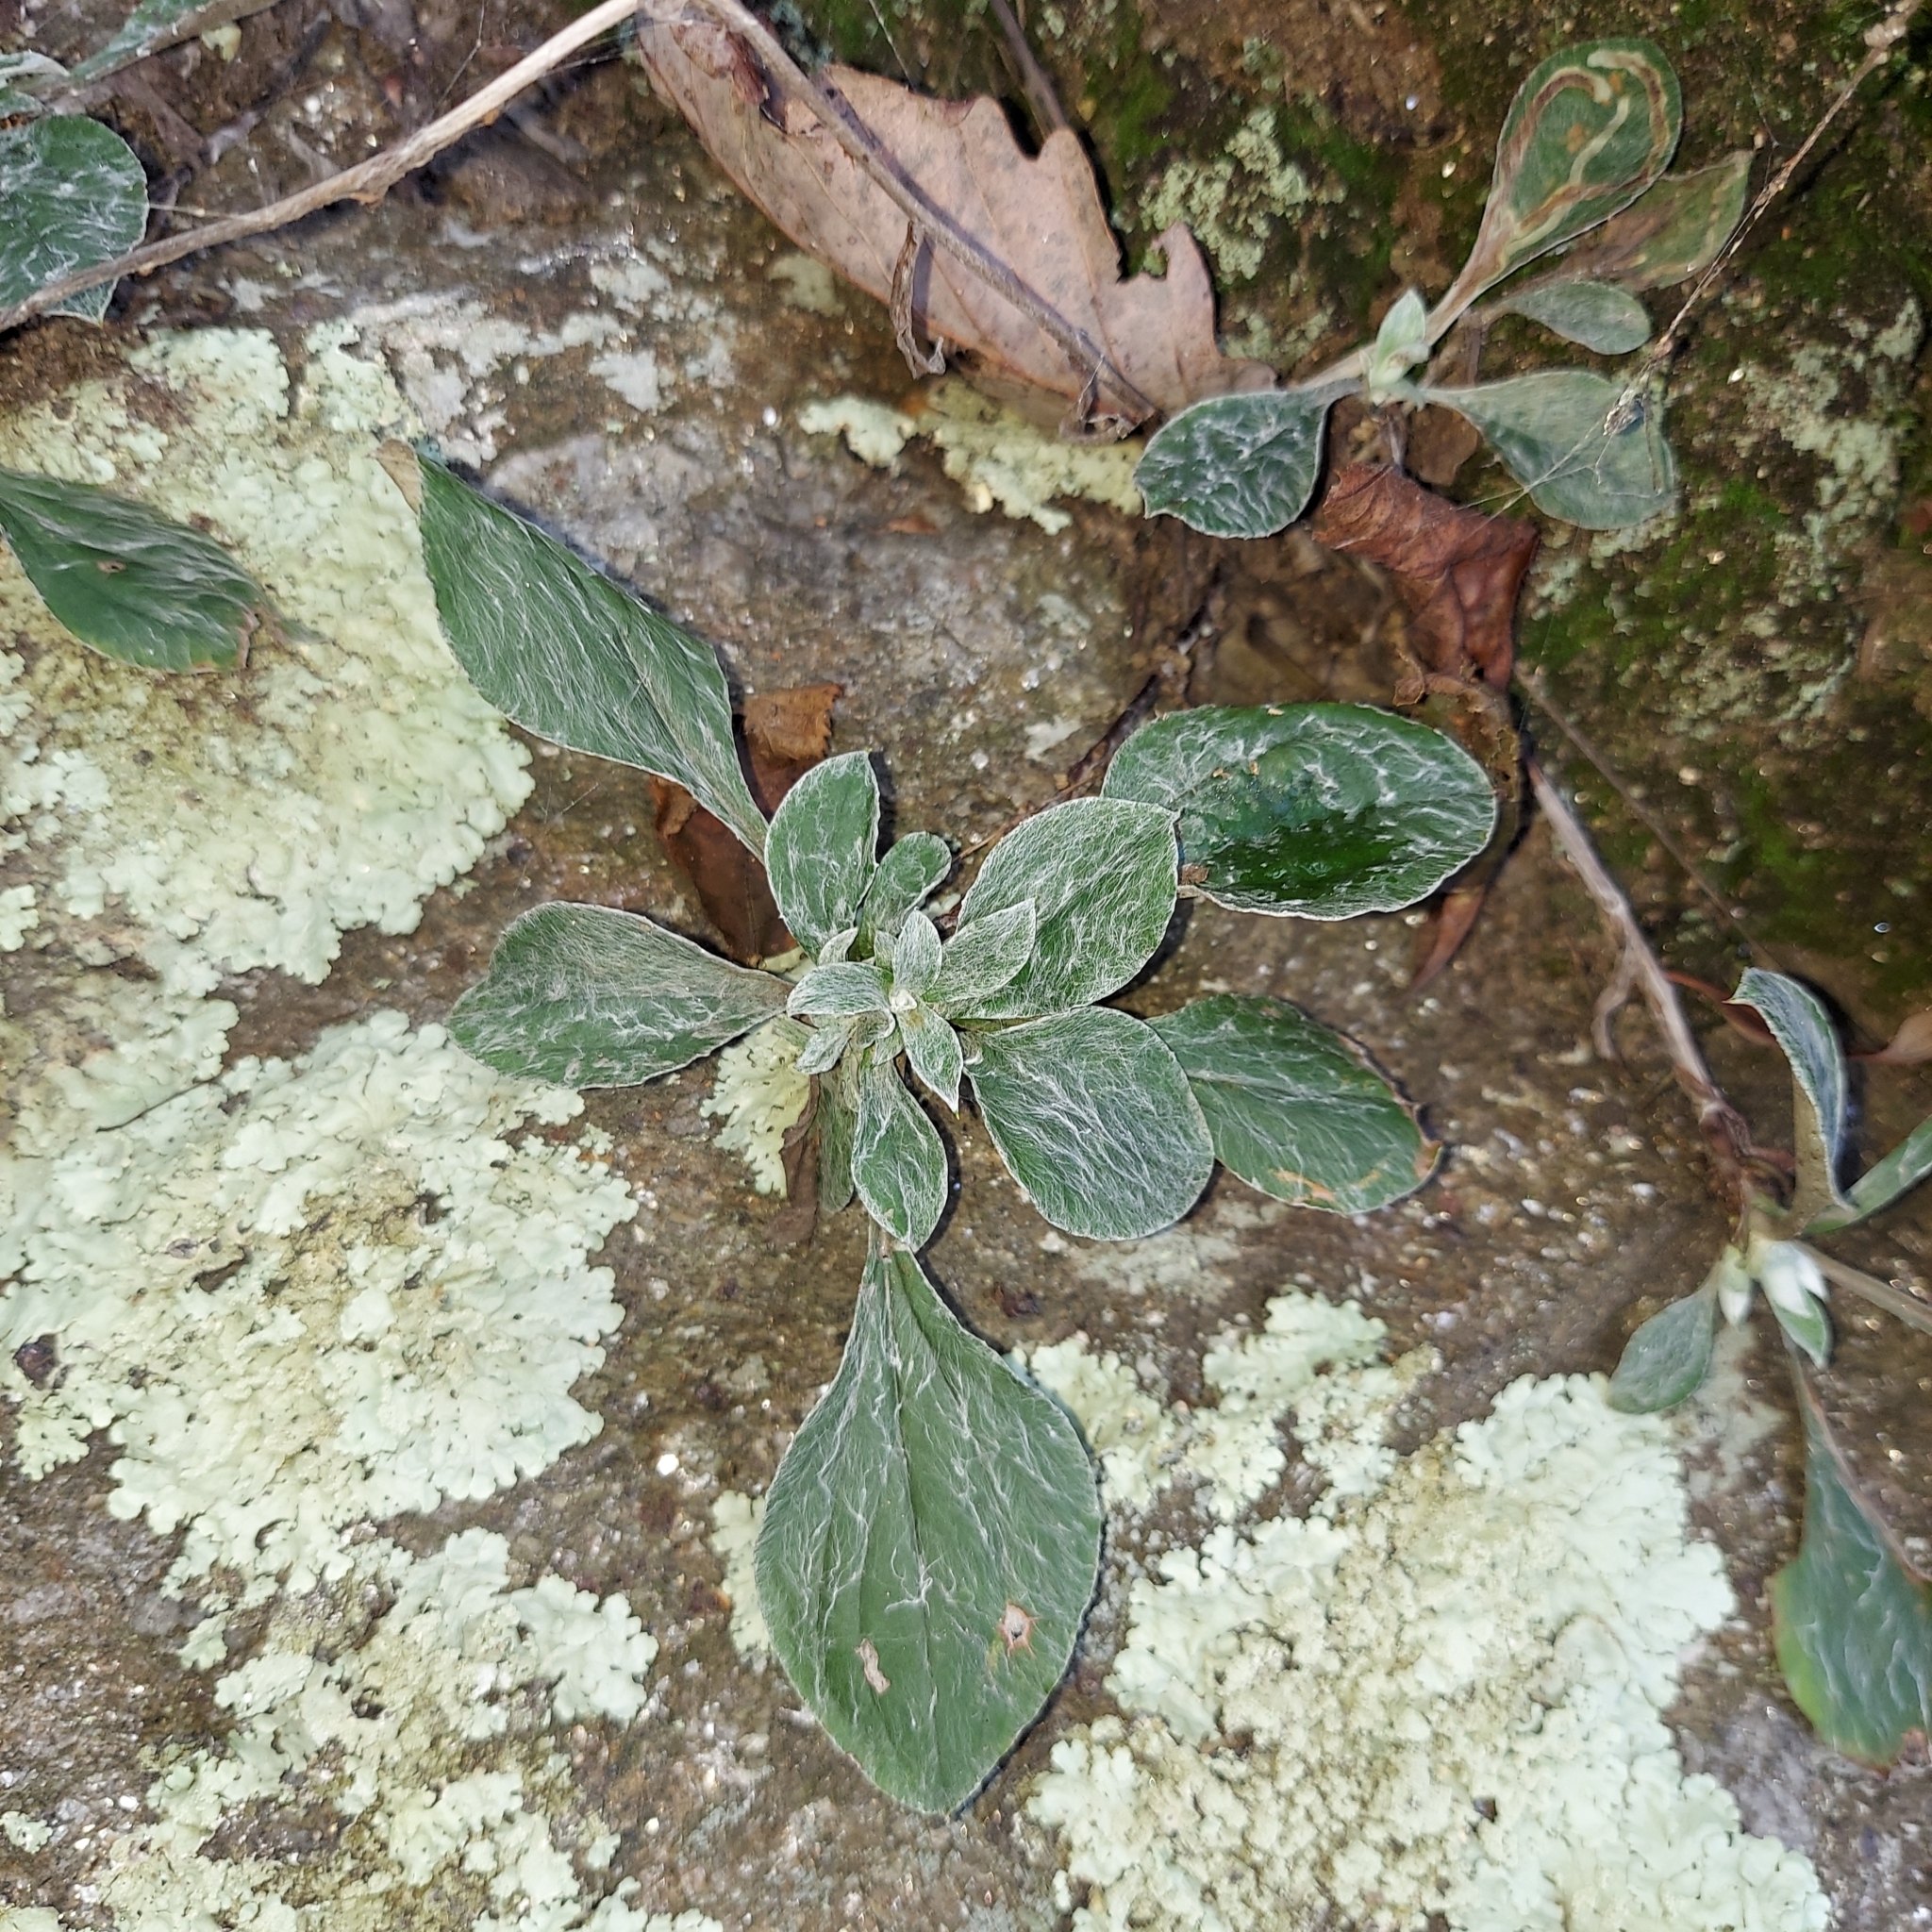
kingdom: Plantae
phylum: Tracheophyta
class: Magnoliopsida
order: Asterales
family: Asteraceae
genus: Antennaria
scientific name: Antennaria plantaginifolia
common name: Plantain-leaved pussytoes
